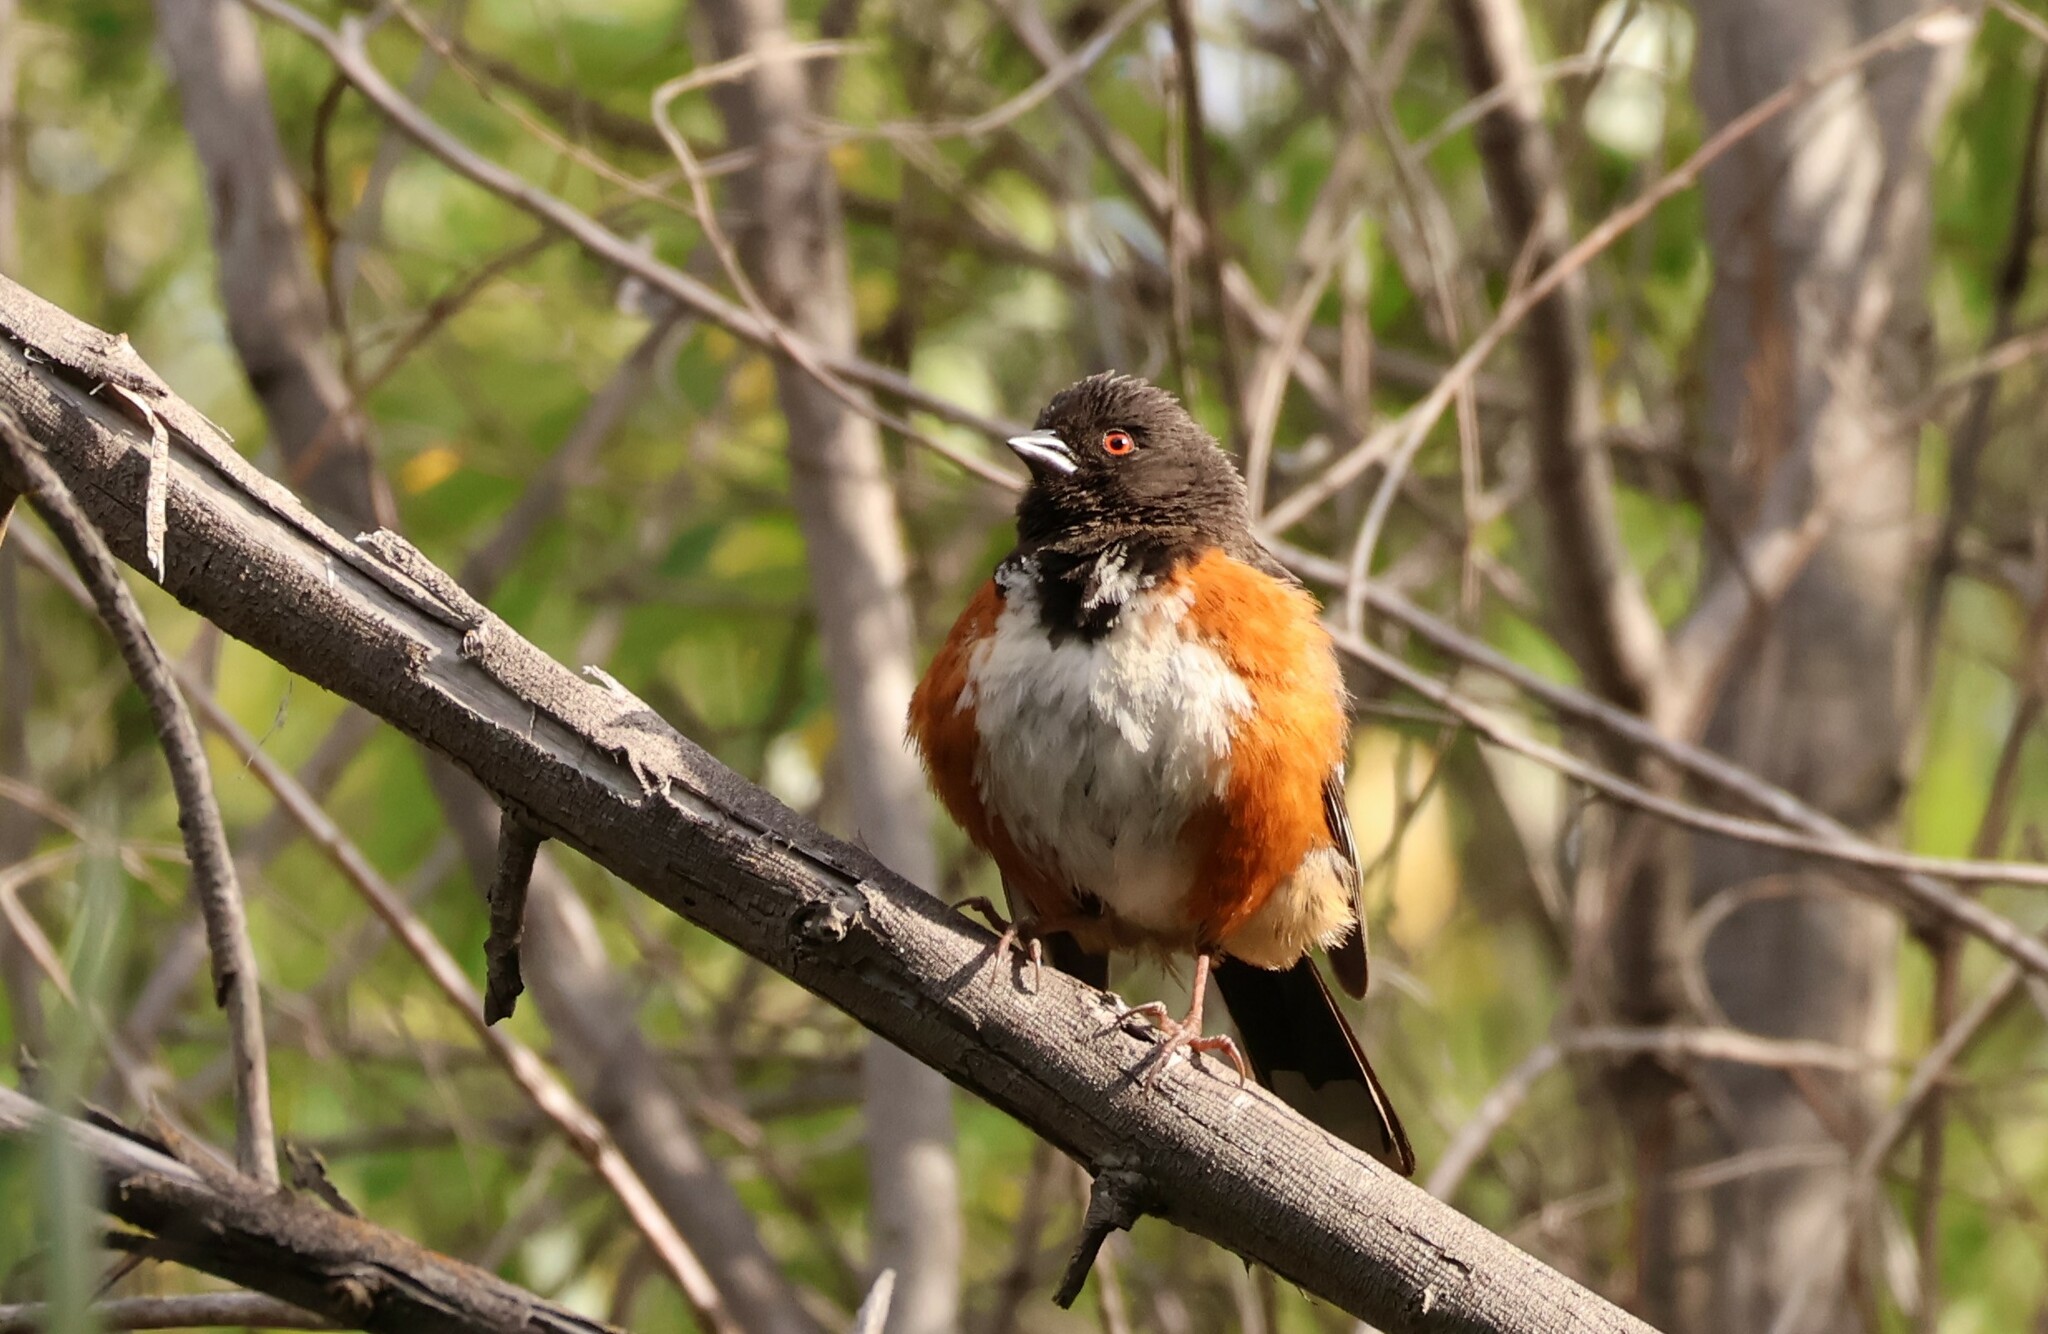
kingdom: Animalia
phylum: Chordata
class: Aves
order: Passeriformes
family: Passerellidae
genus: Pipilo
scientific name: Pipilo maculatus
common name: Spotted towhee
